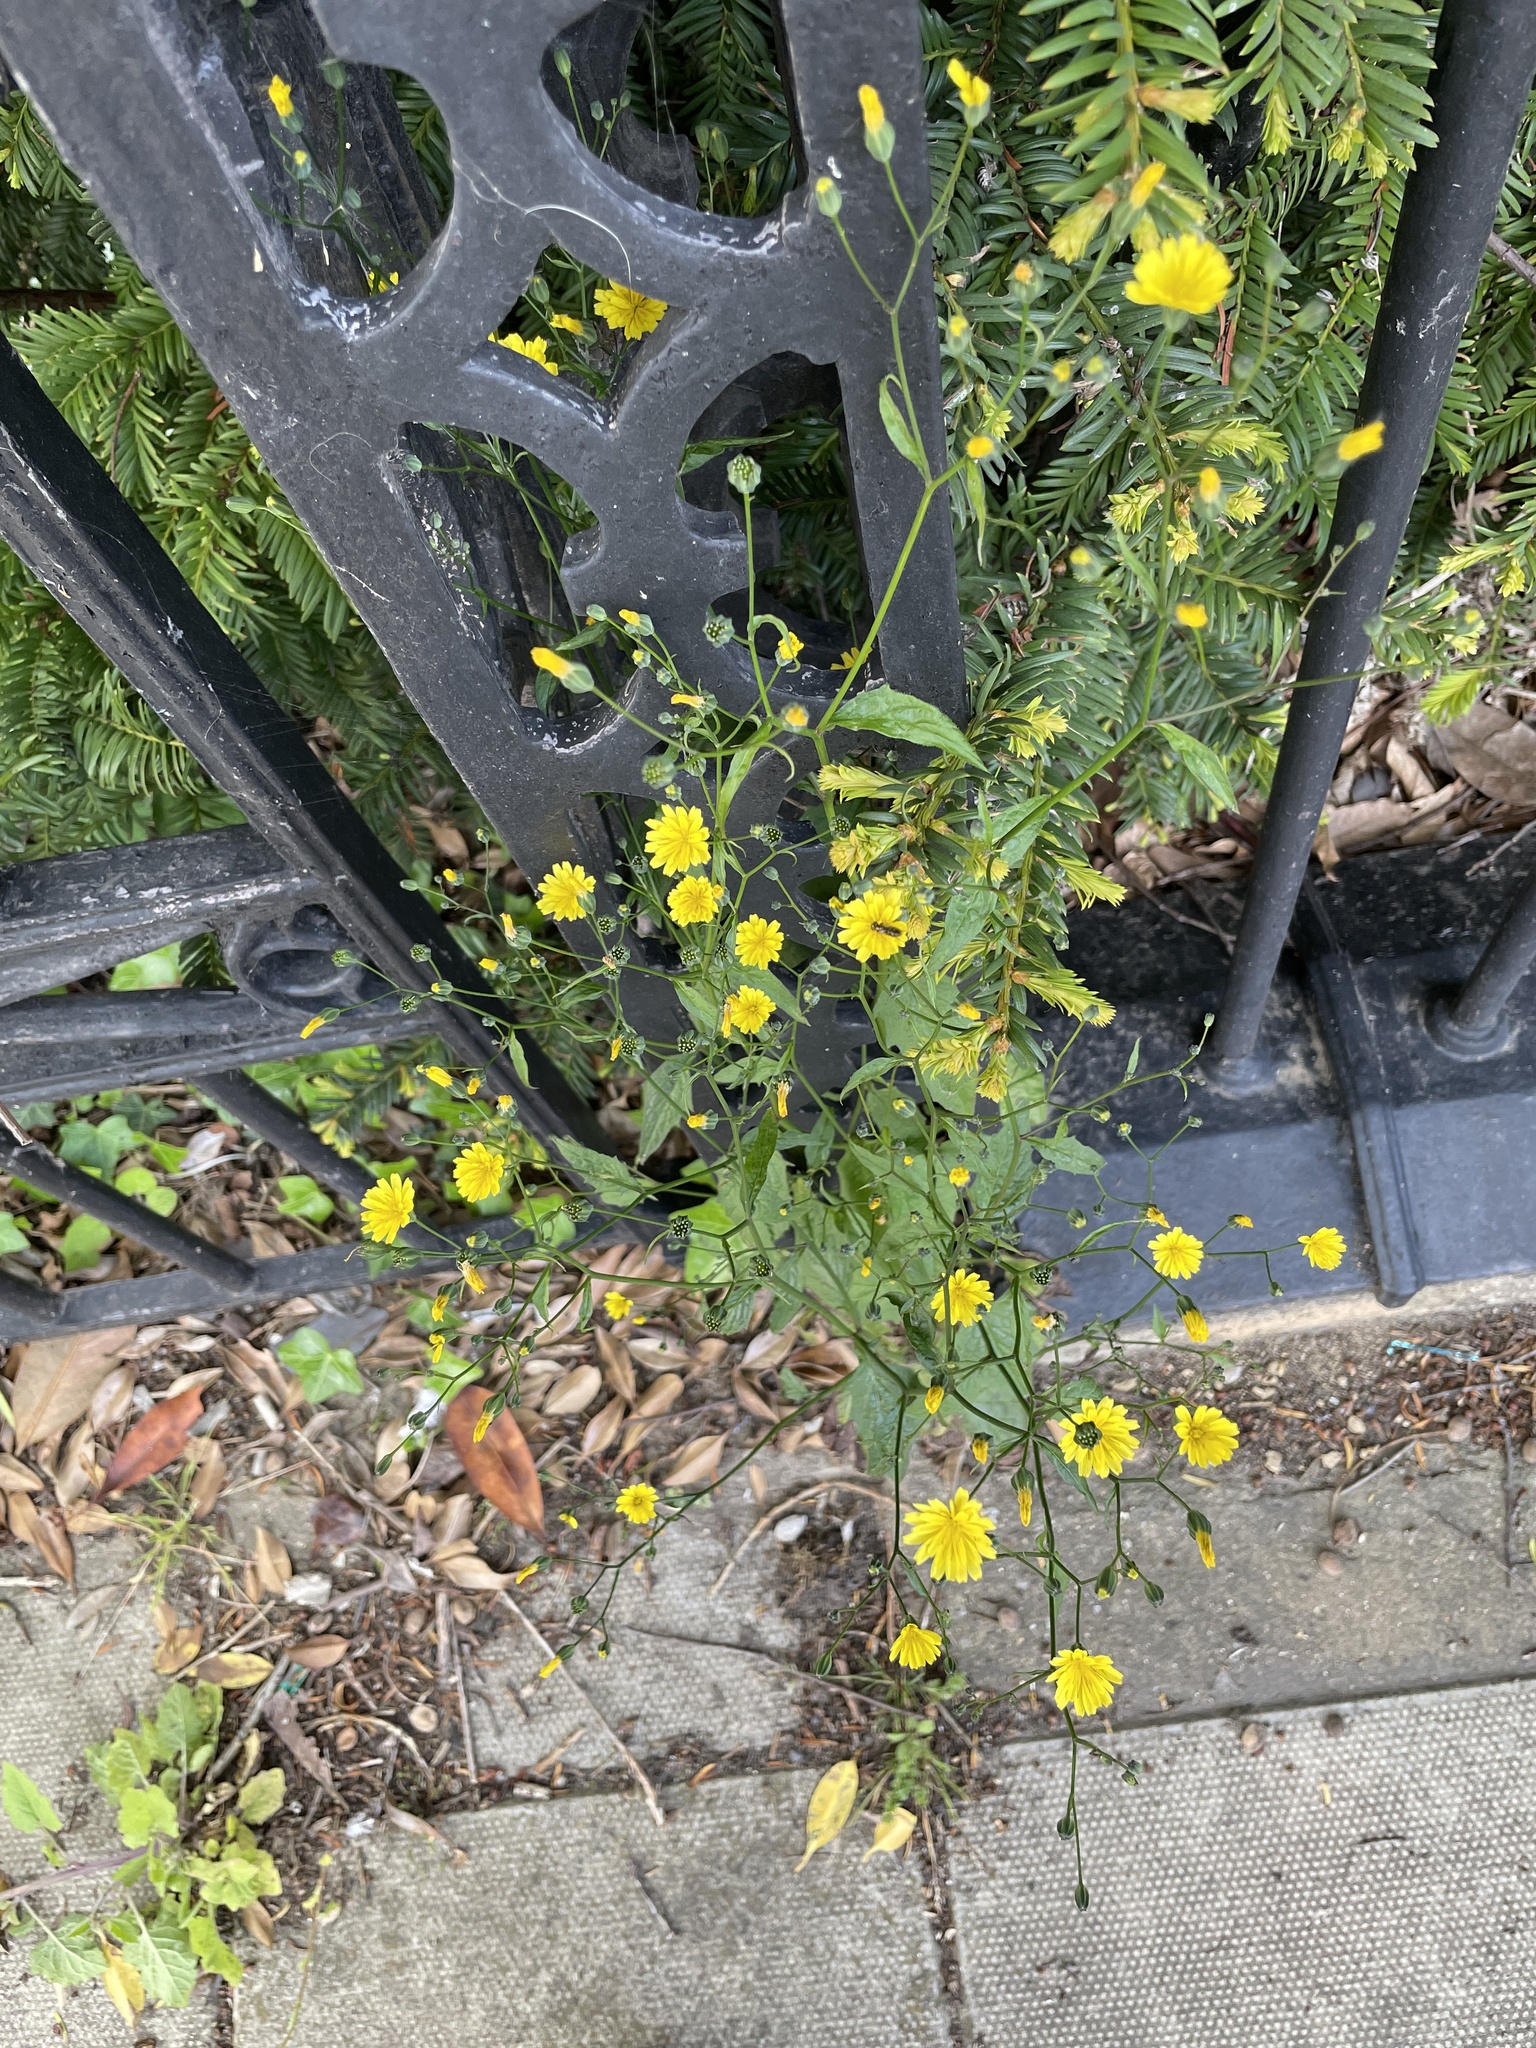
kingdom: Plantae
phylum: Tracheophyta
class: Magnoliopsida
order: Asterales
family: Asteraceae
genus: Lapsana
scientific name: Lapsana communis
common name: Nipplewort
